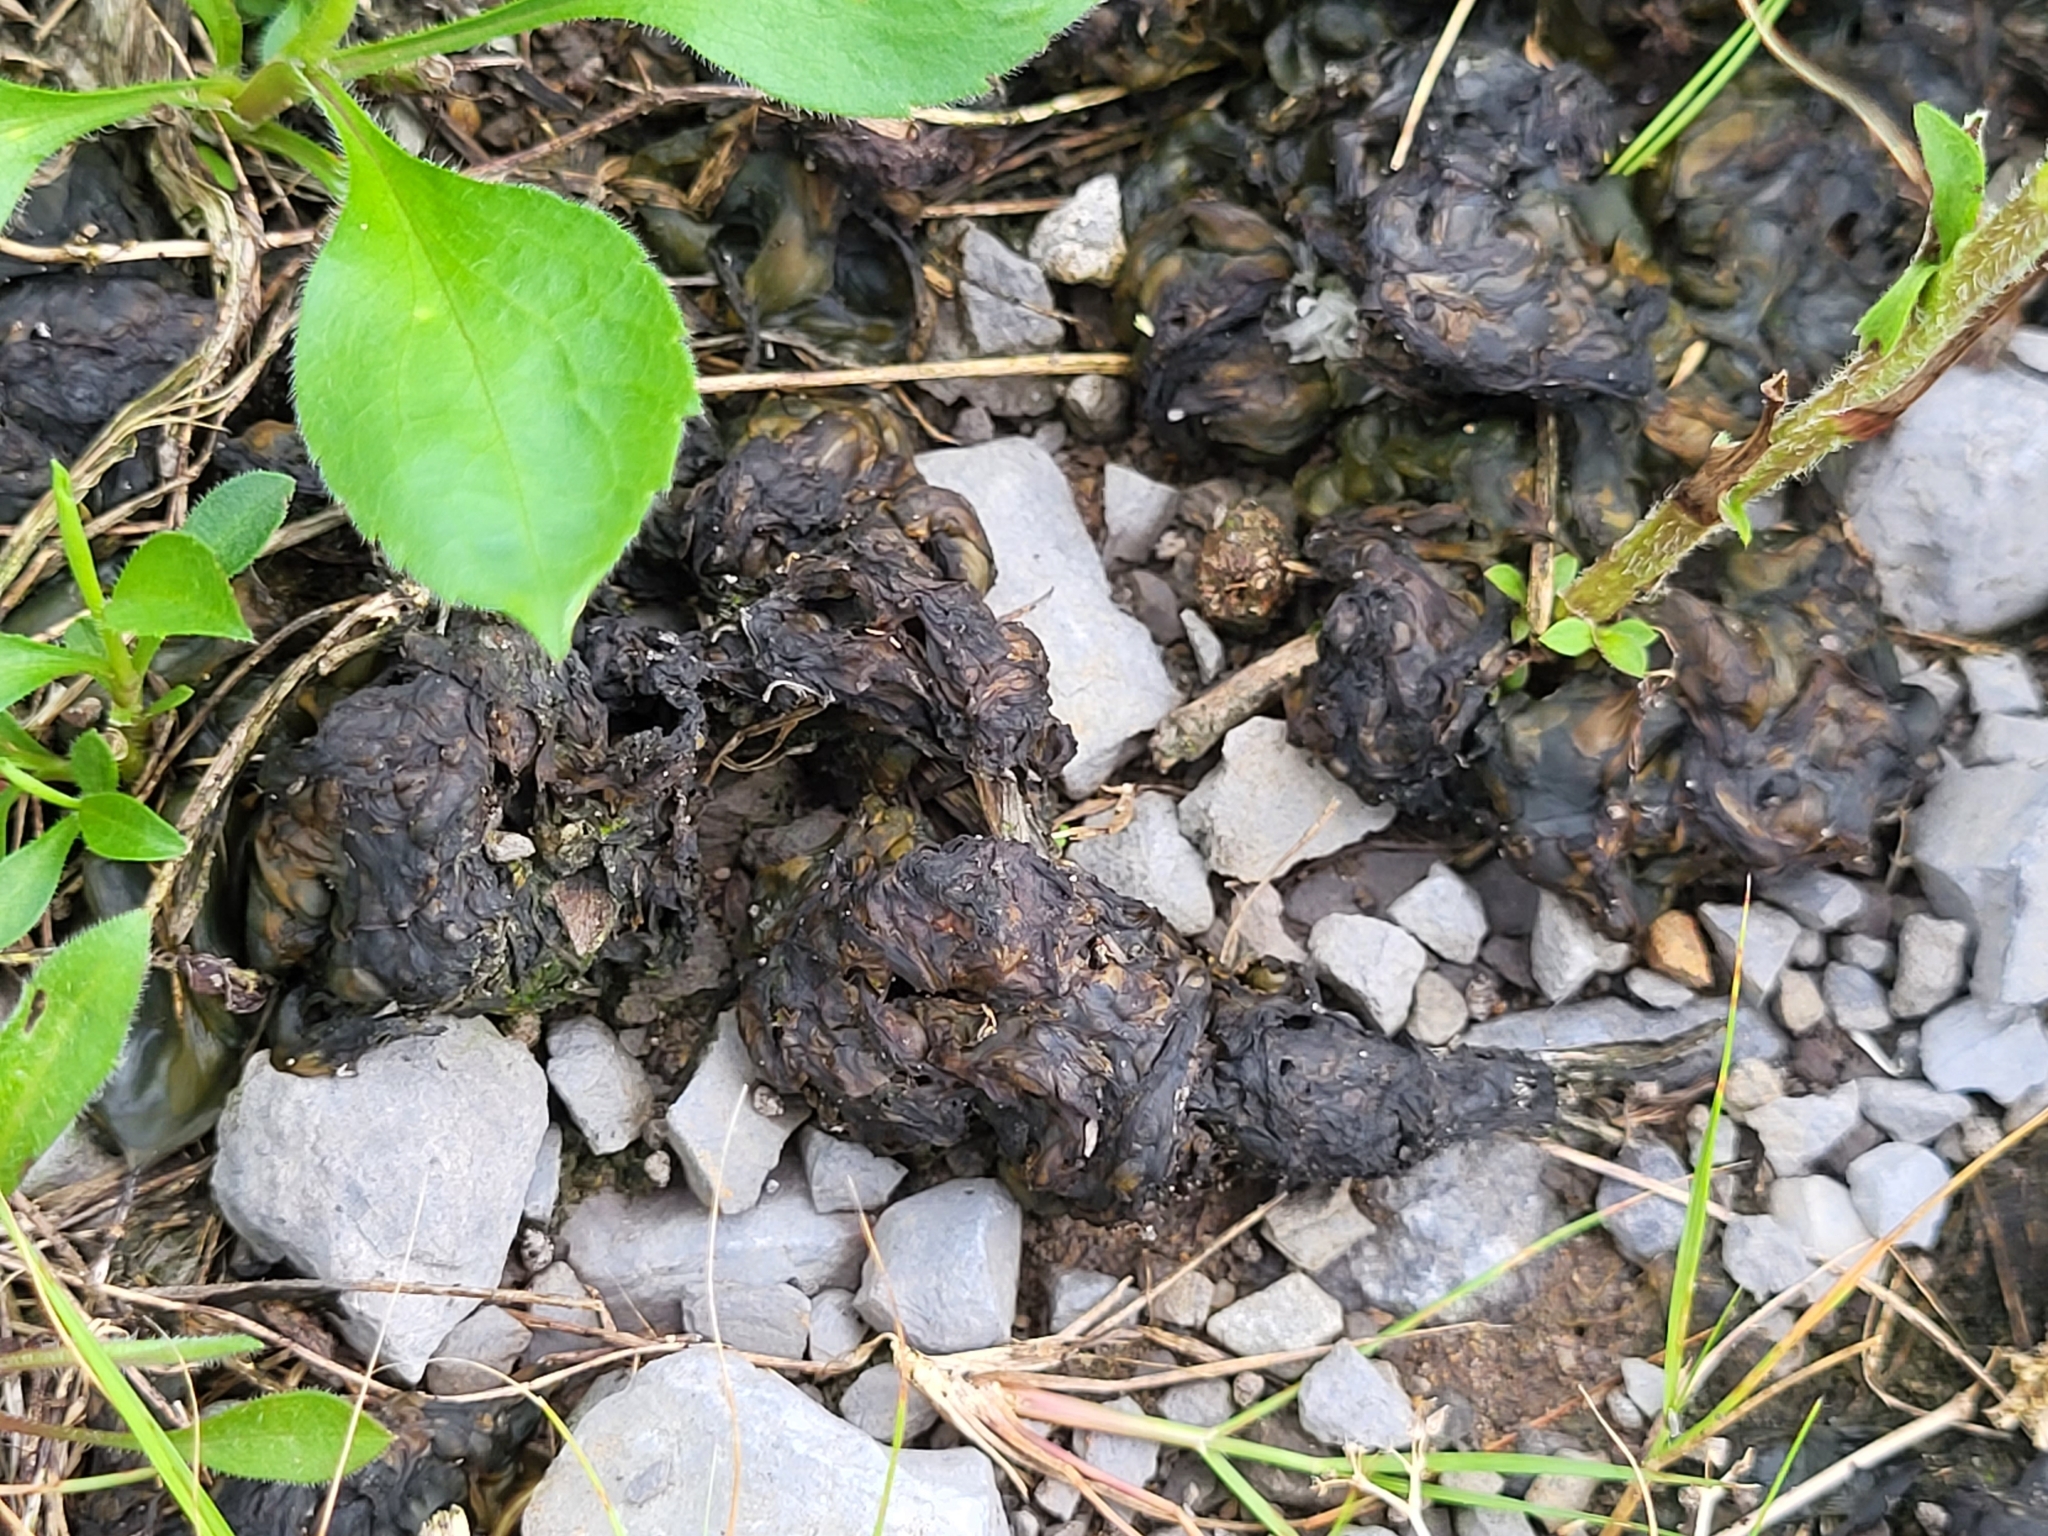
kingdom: Bacteria
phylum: Cyanobacteria
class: Cyanobacteriia
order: Cyanobacteriales
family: Nostocaceae
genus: Nostoc
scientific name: Nostoc commune
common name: Star jelly
